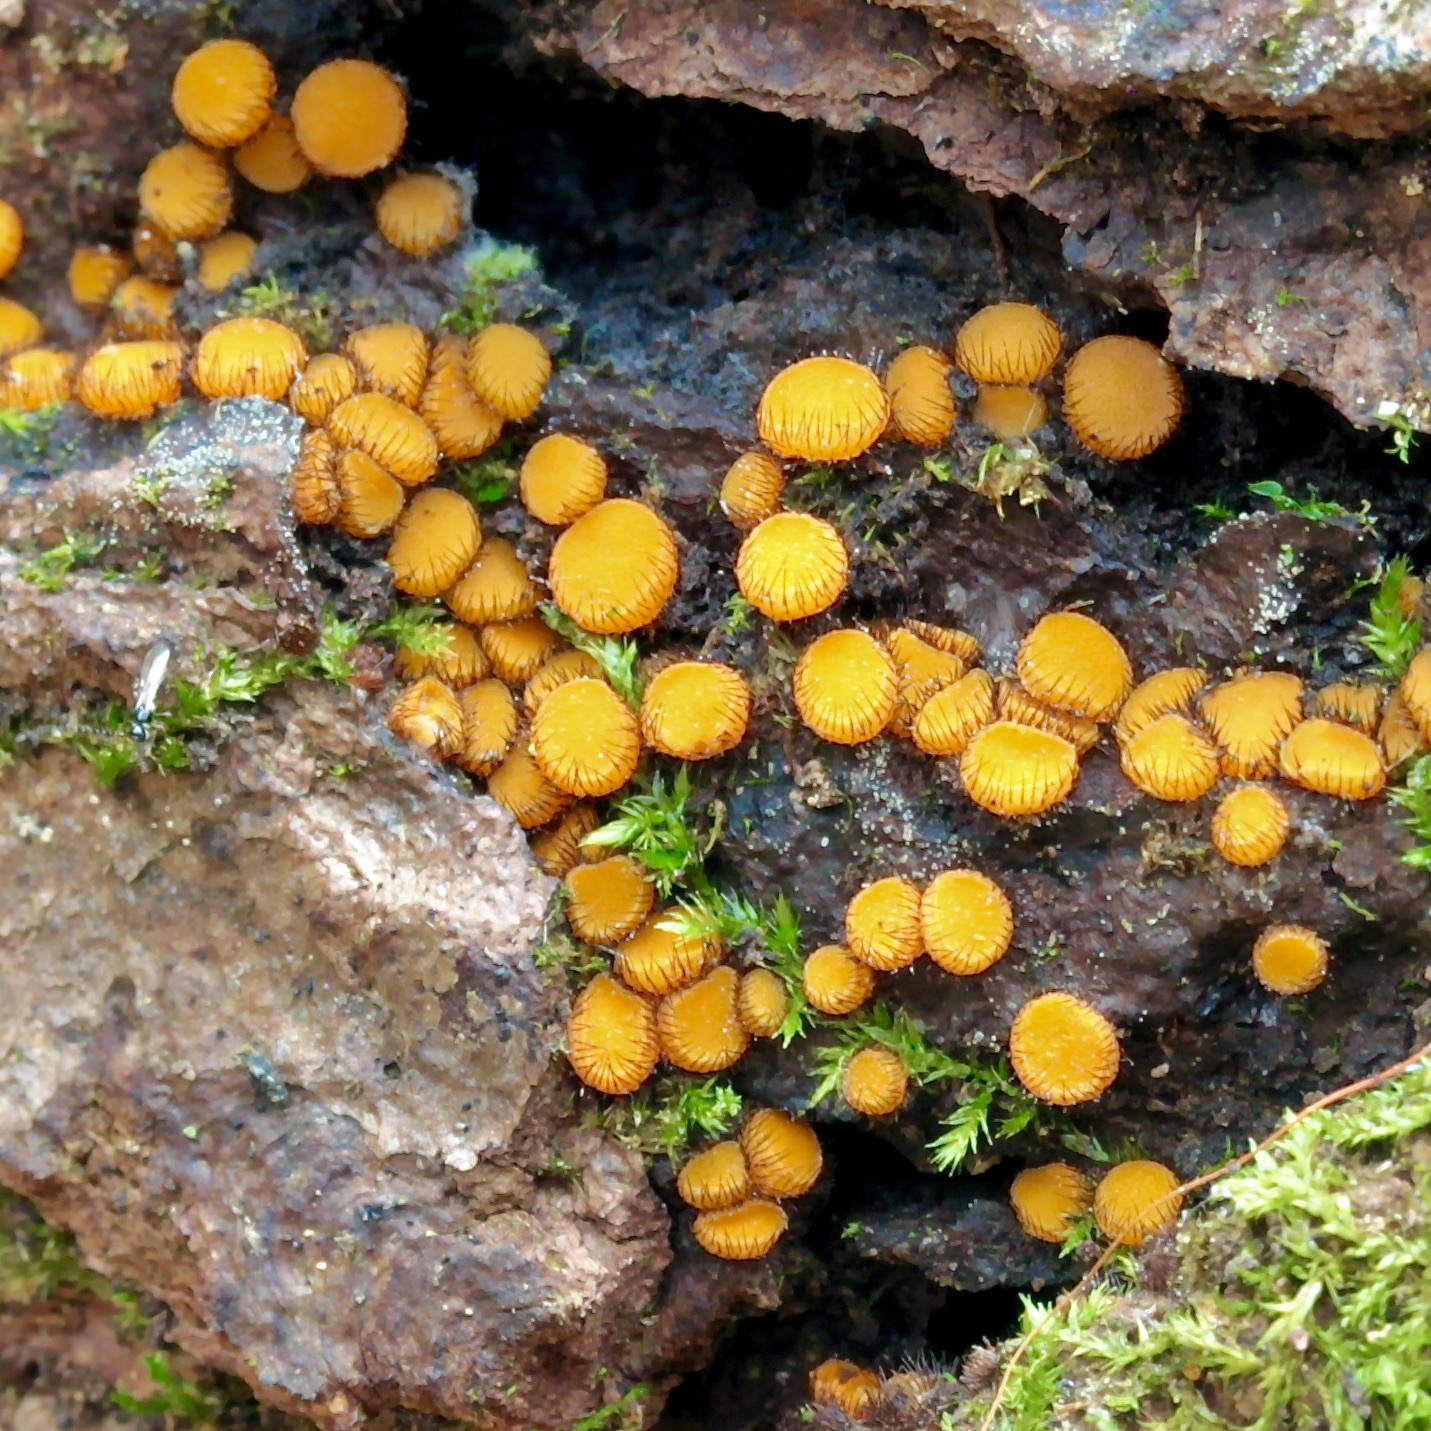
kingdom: Fungi
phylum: Ascomycota
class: Pezizomycetes
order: Pezizales
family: Pyronemataceae
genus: Scutellinia
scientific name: Scutellinia setosa
